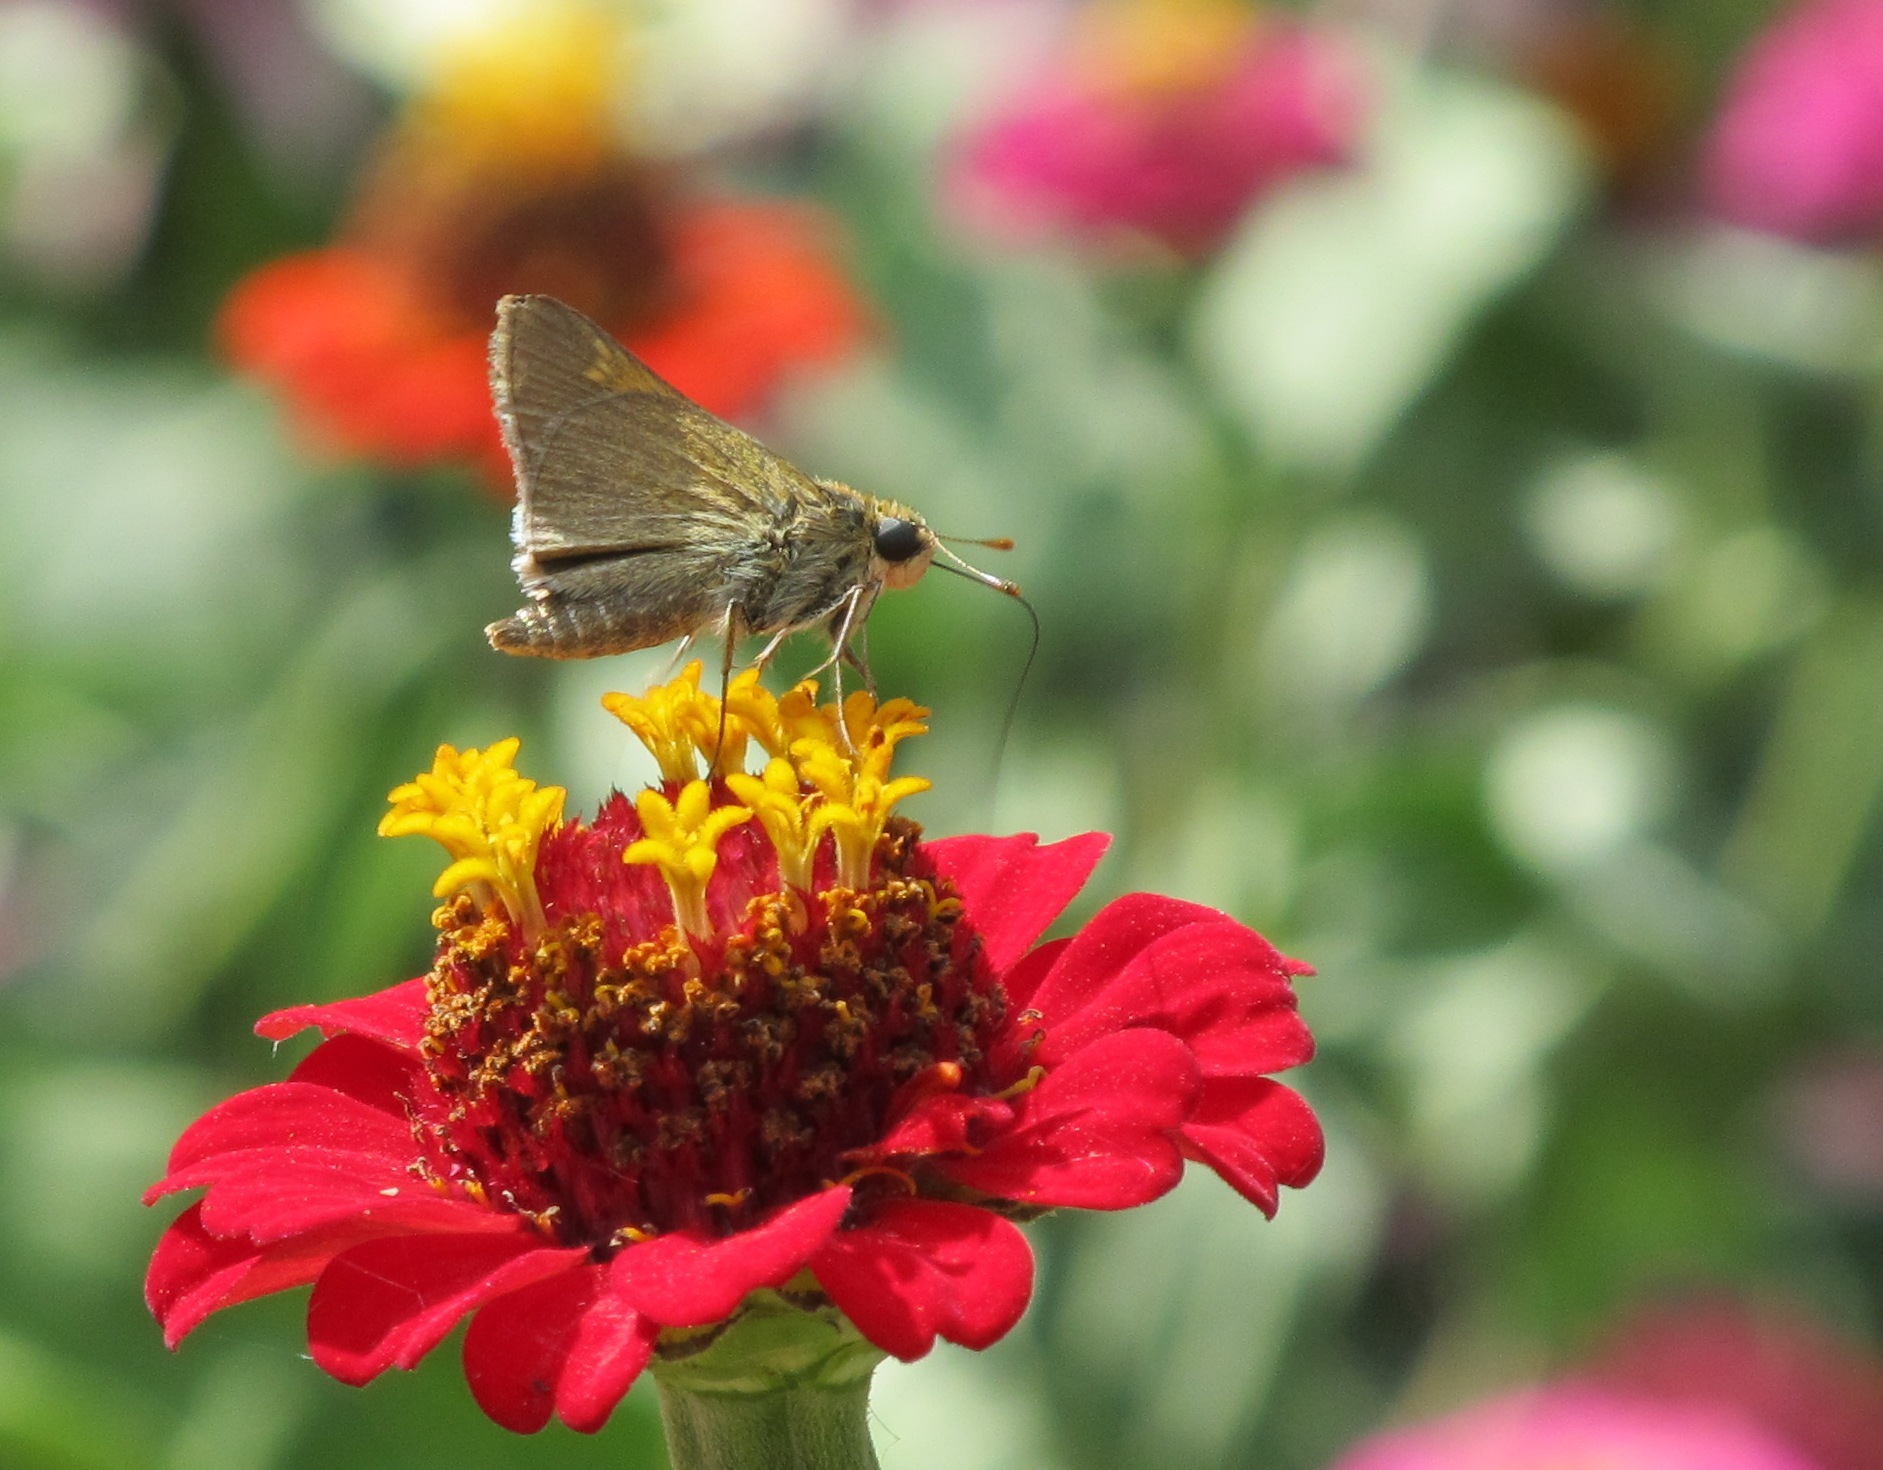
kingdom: Animalia
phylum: Arthropoda
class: Insecta
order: Lepidoptera
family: Hesperiidae
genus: Polites
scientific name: Polites themistocles
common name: Tawny-edged skipper
